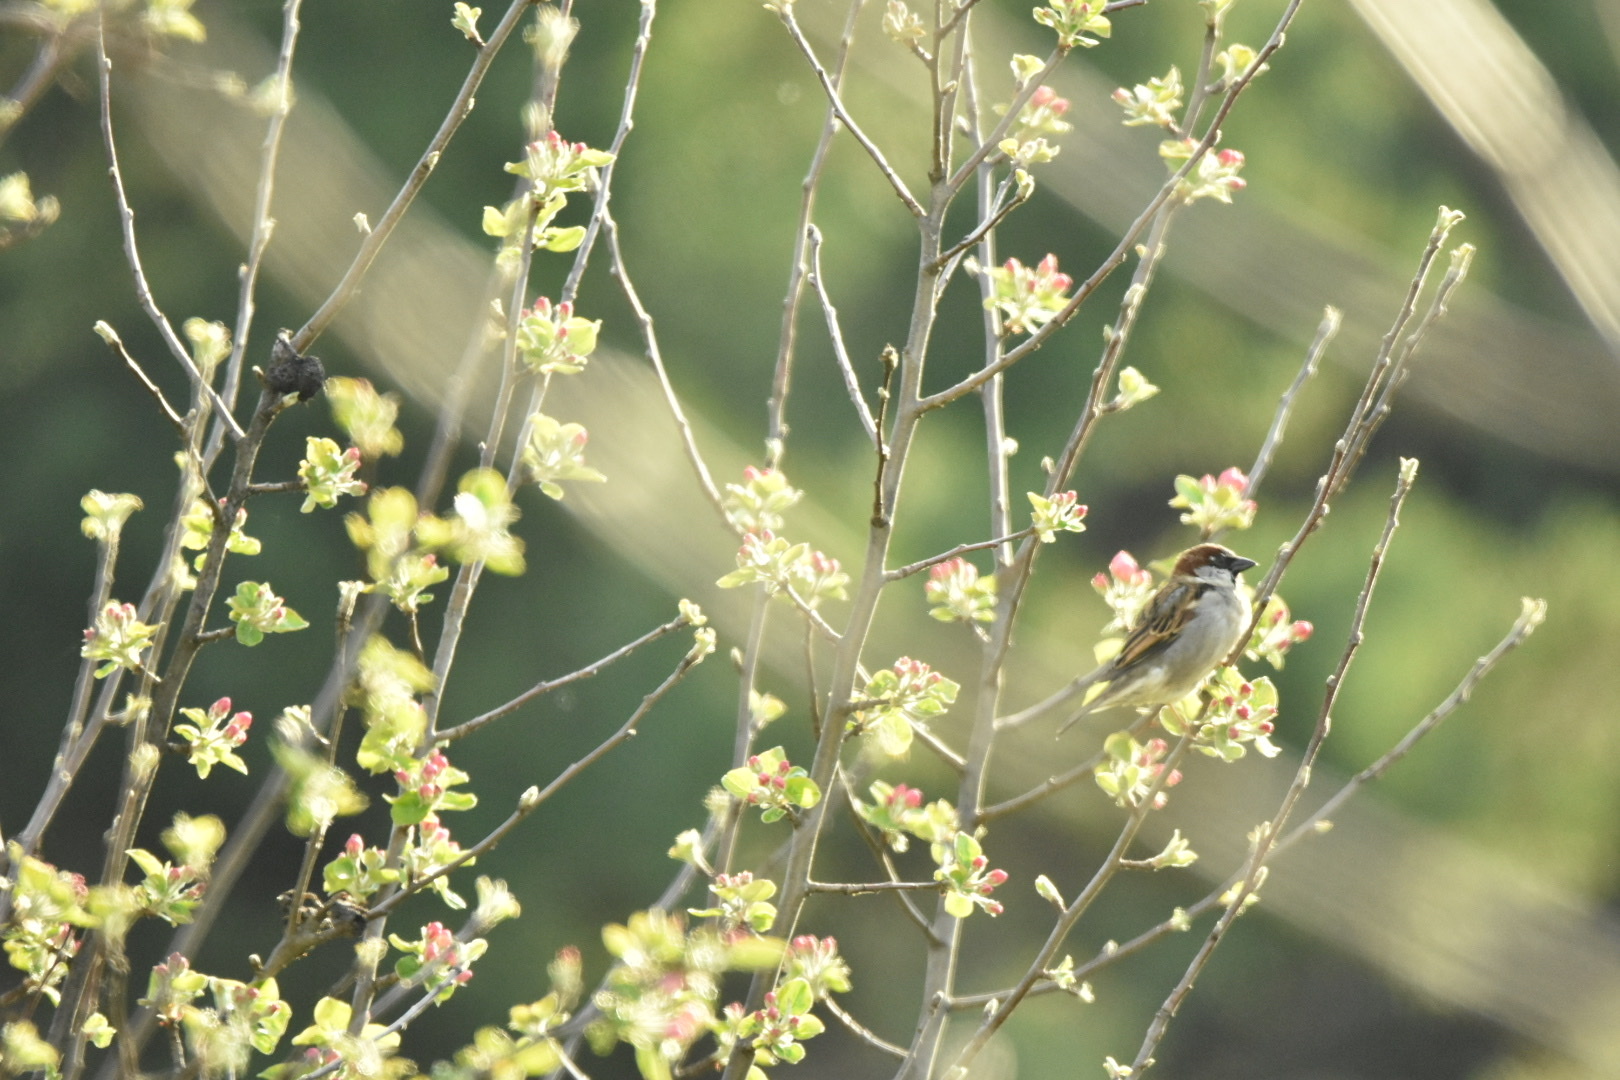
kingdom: Animalia
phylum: Chordata
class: Aves
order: Passeriformes
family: Passeridae
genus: Passer
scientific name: Passer domesticus
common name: House sparrow
